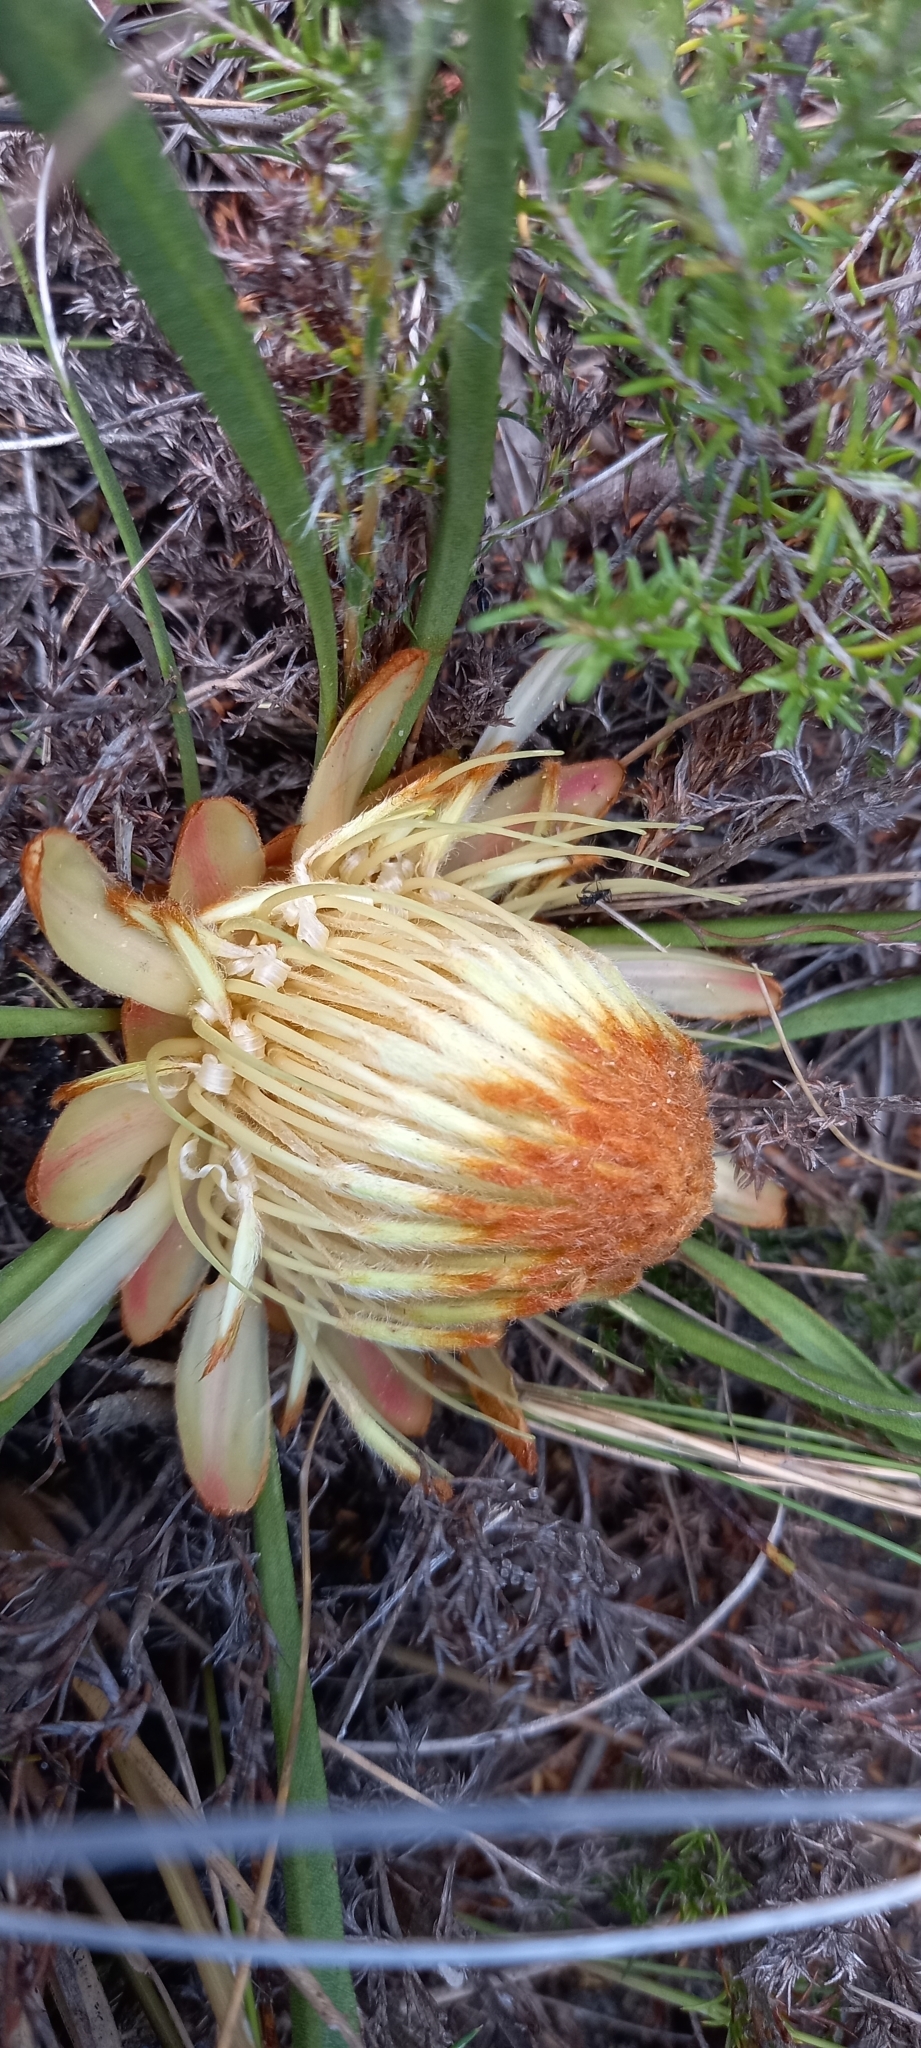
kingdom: Plantae
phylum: Tracheophyta
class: Magnoliopsida
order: Proteales
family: Proteaceae
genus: Protea
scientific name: Protea scabra
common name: Sandpaper-leaf sugarbush
